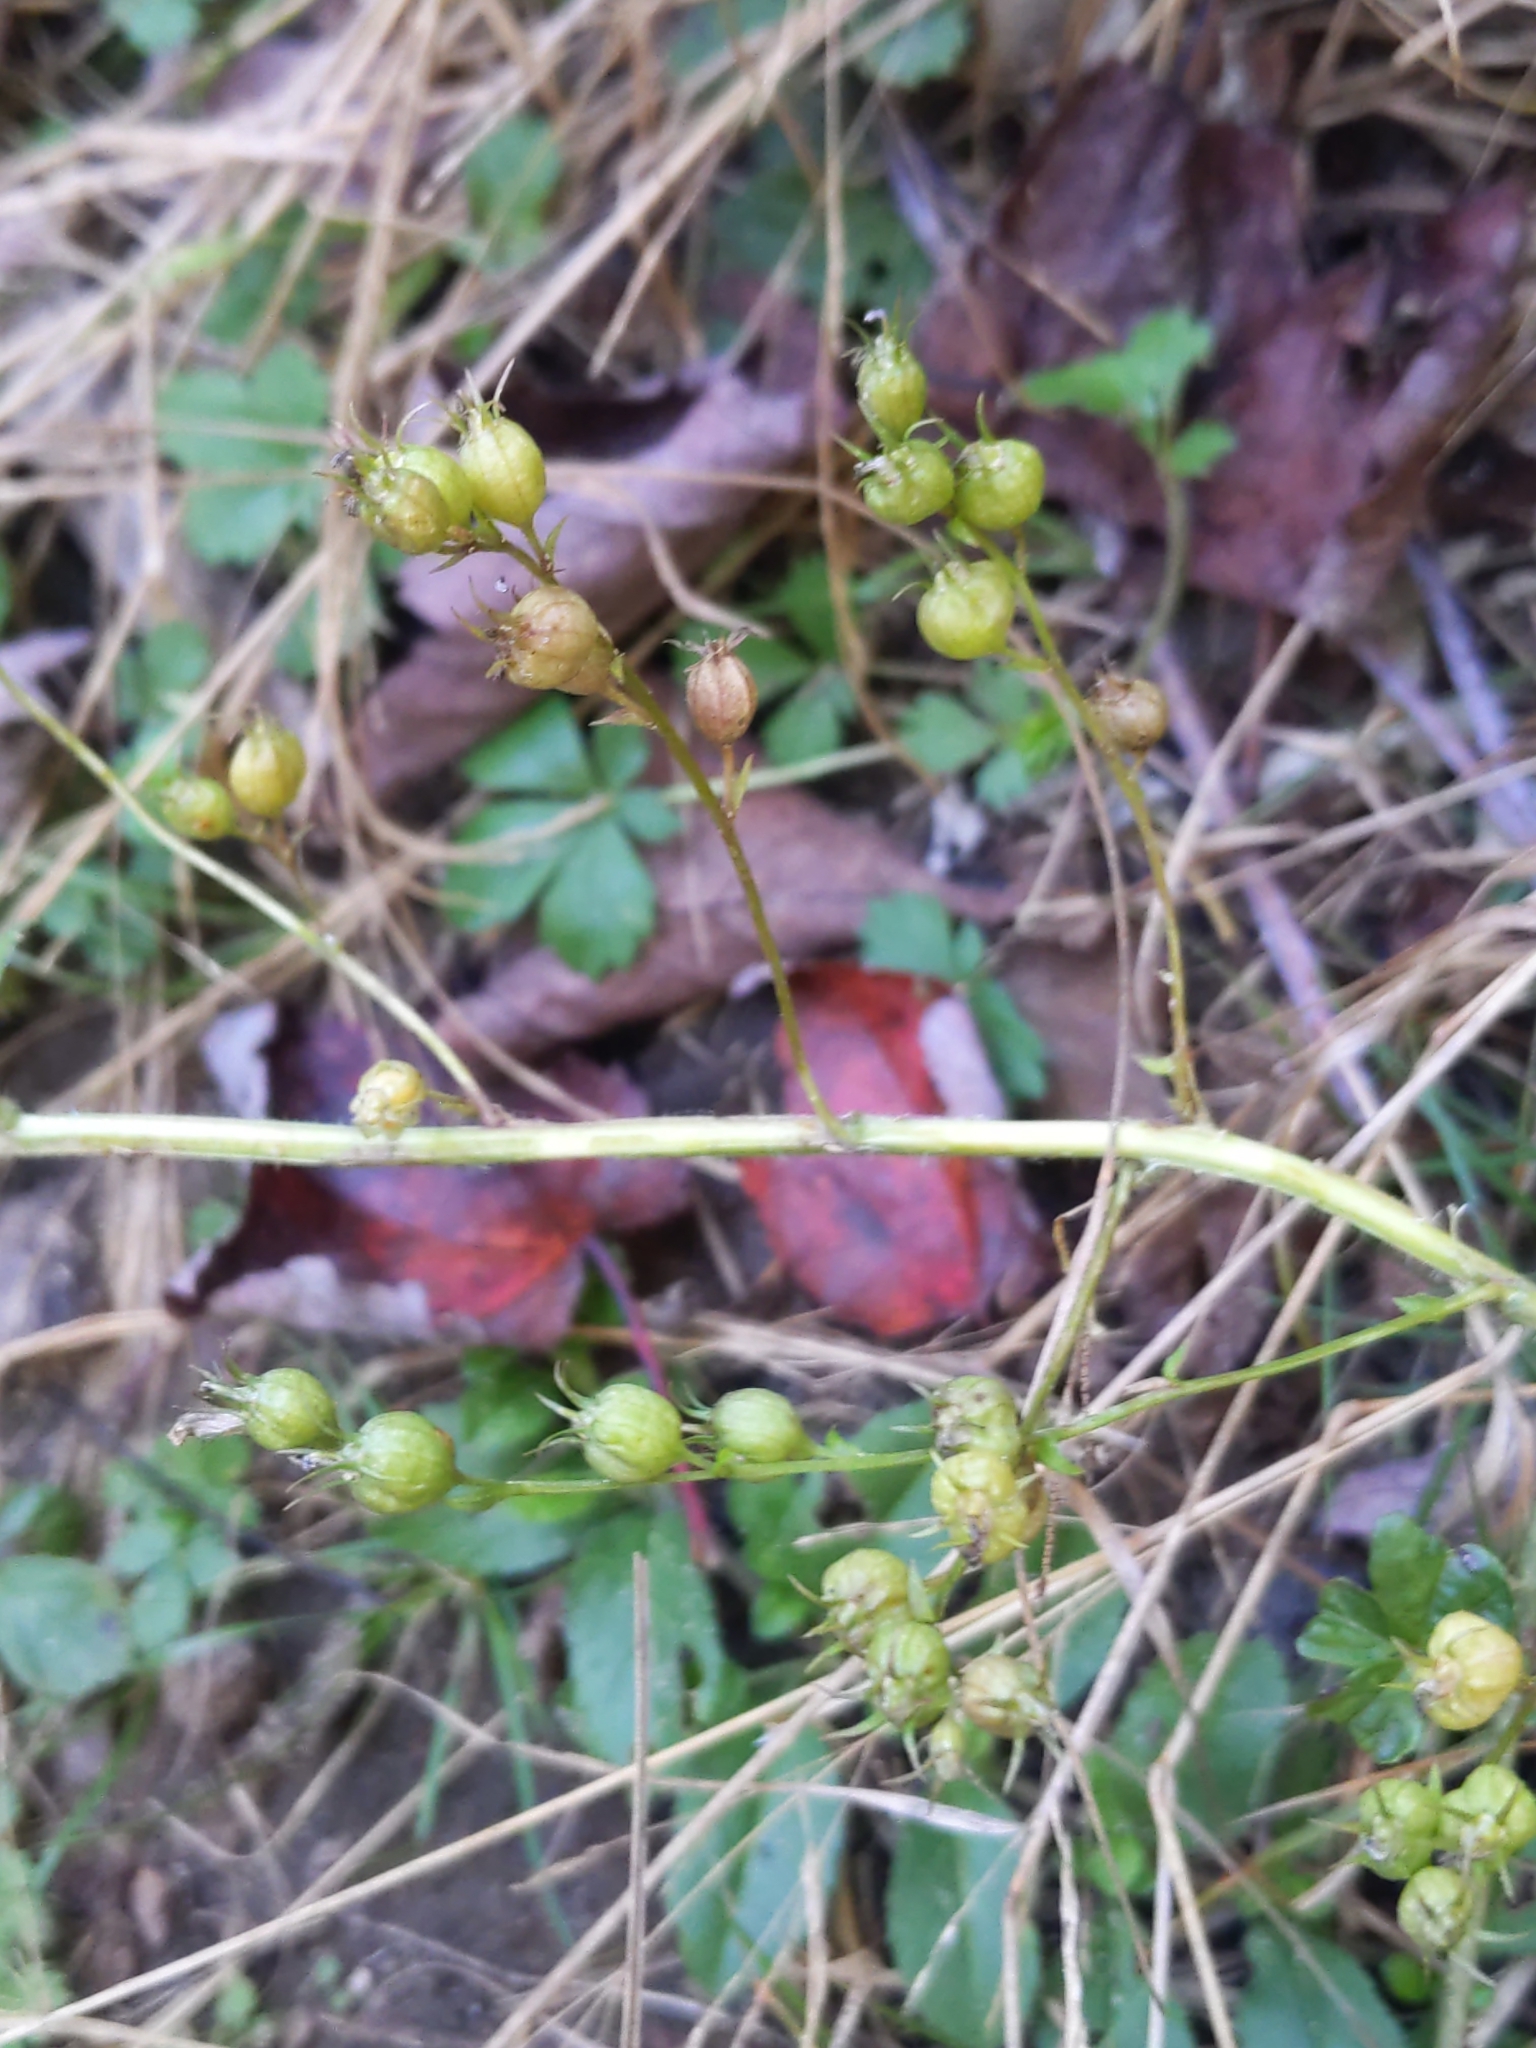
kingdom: Plantae
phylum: Tracheophyta
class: Magnoliopsida
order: Asterales
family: Campanulaceae
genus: Lobelia
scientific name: Lobelia inflata
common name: Indian tobacco
